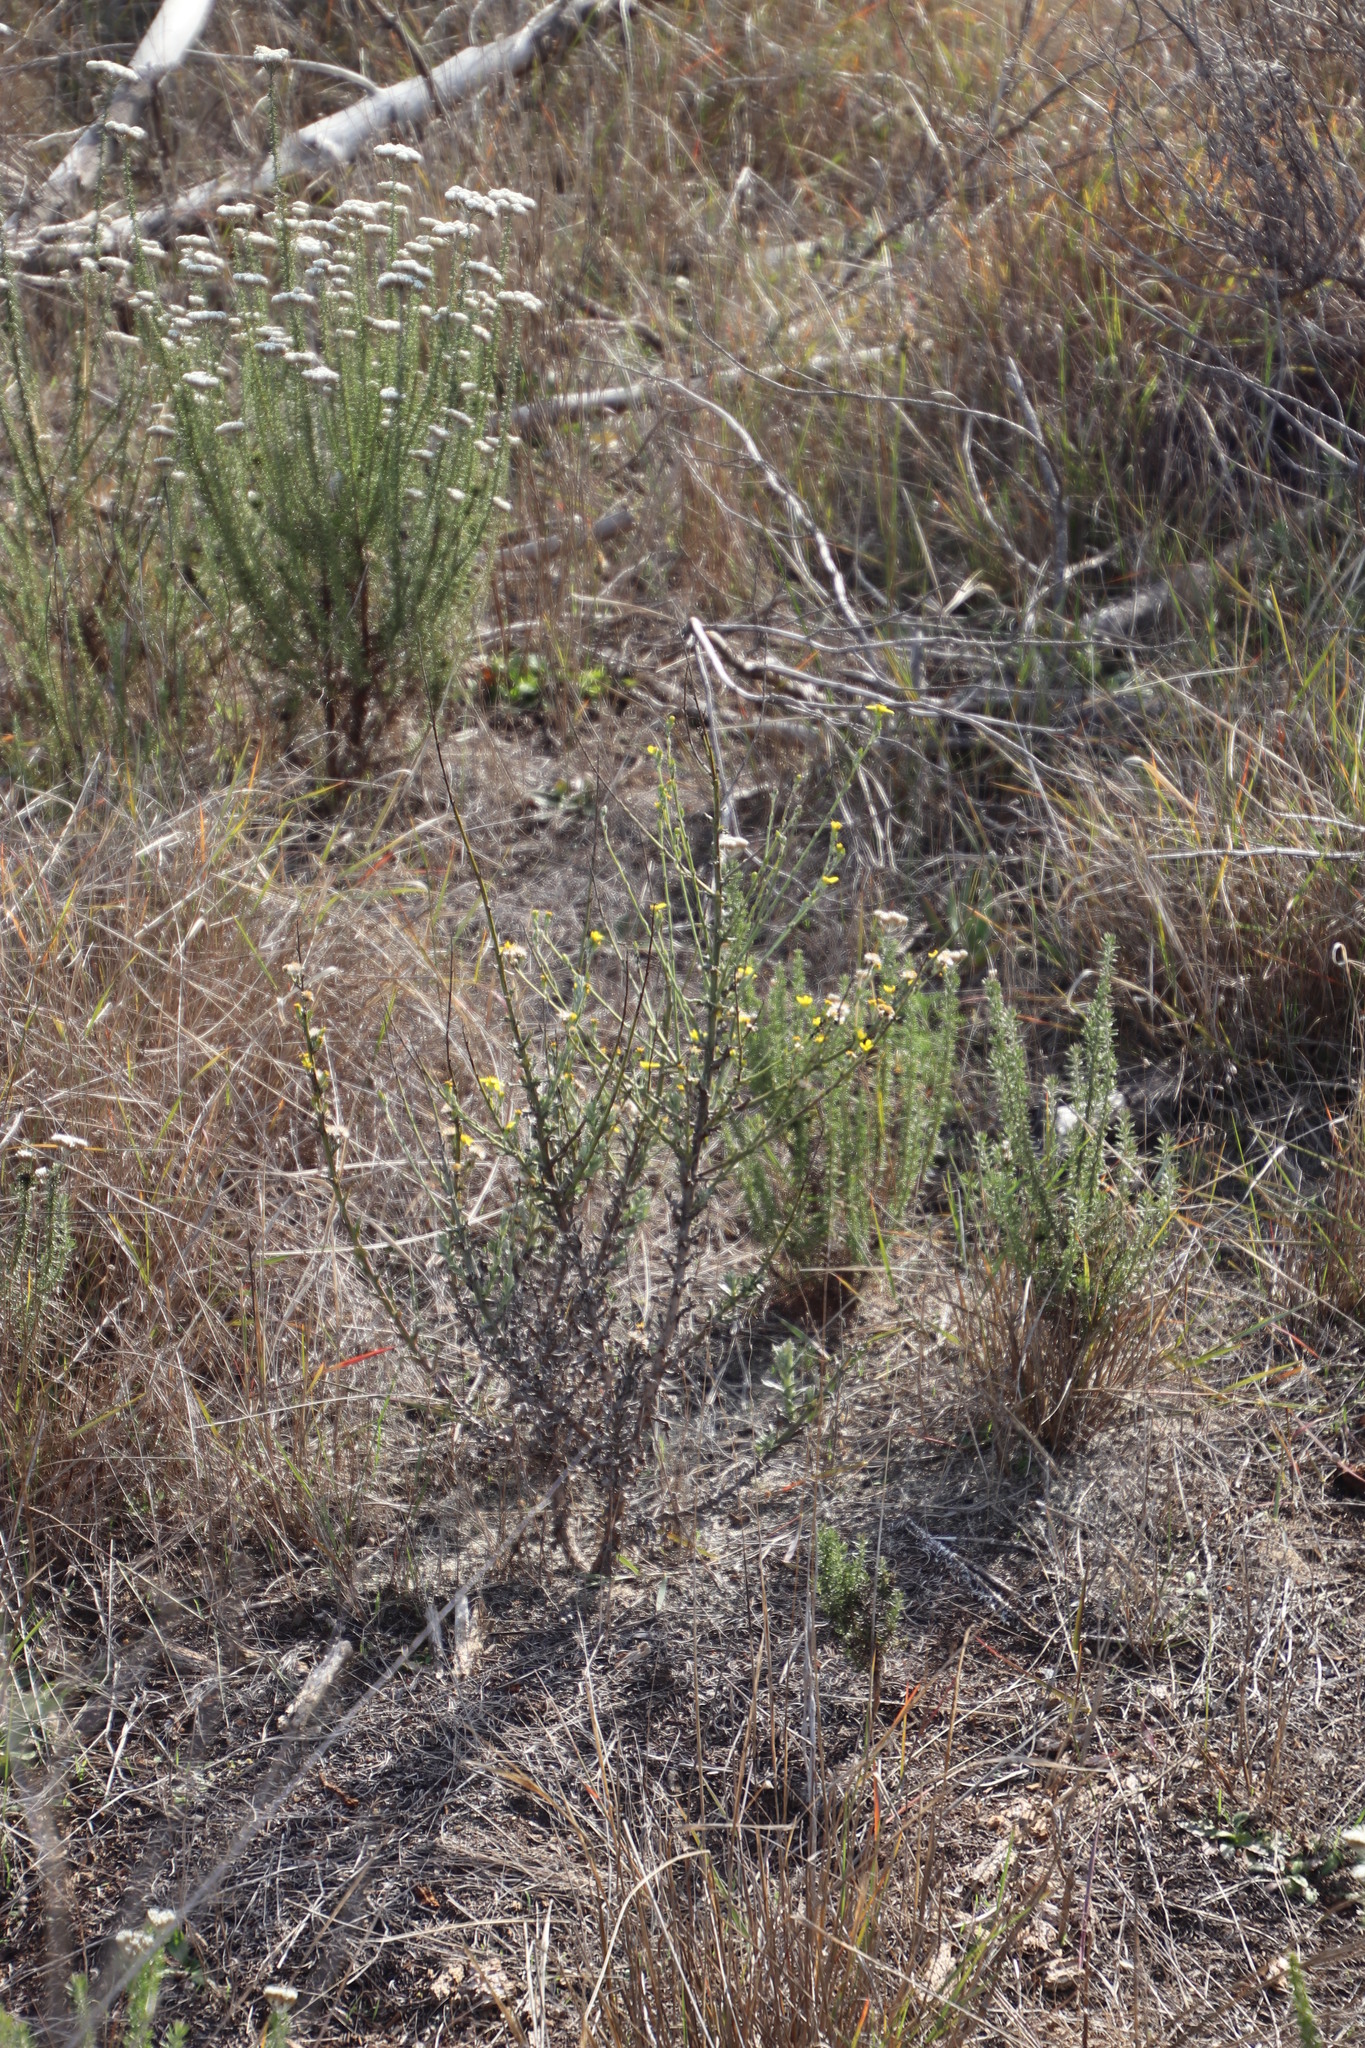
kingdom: Plantae
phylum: Tracheophyta
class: Magnoliopsida
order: Asterales
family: Asteraceae
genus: Senecio
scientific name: Senecio pubigerus
